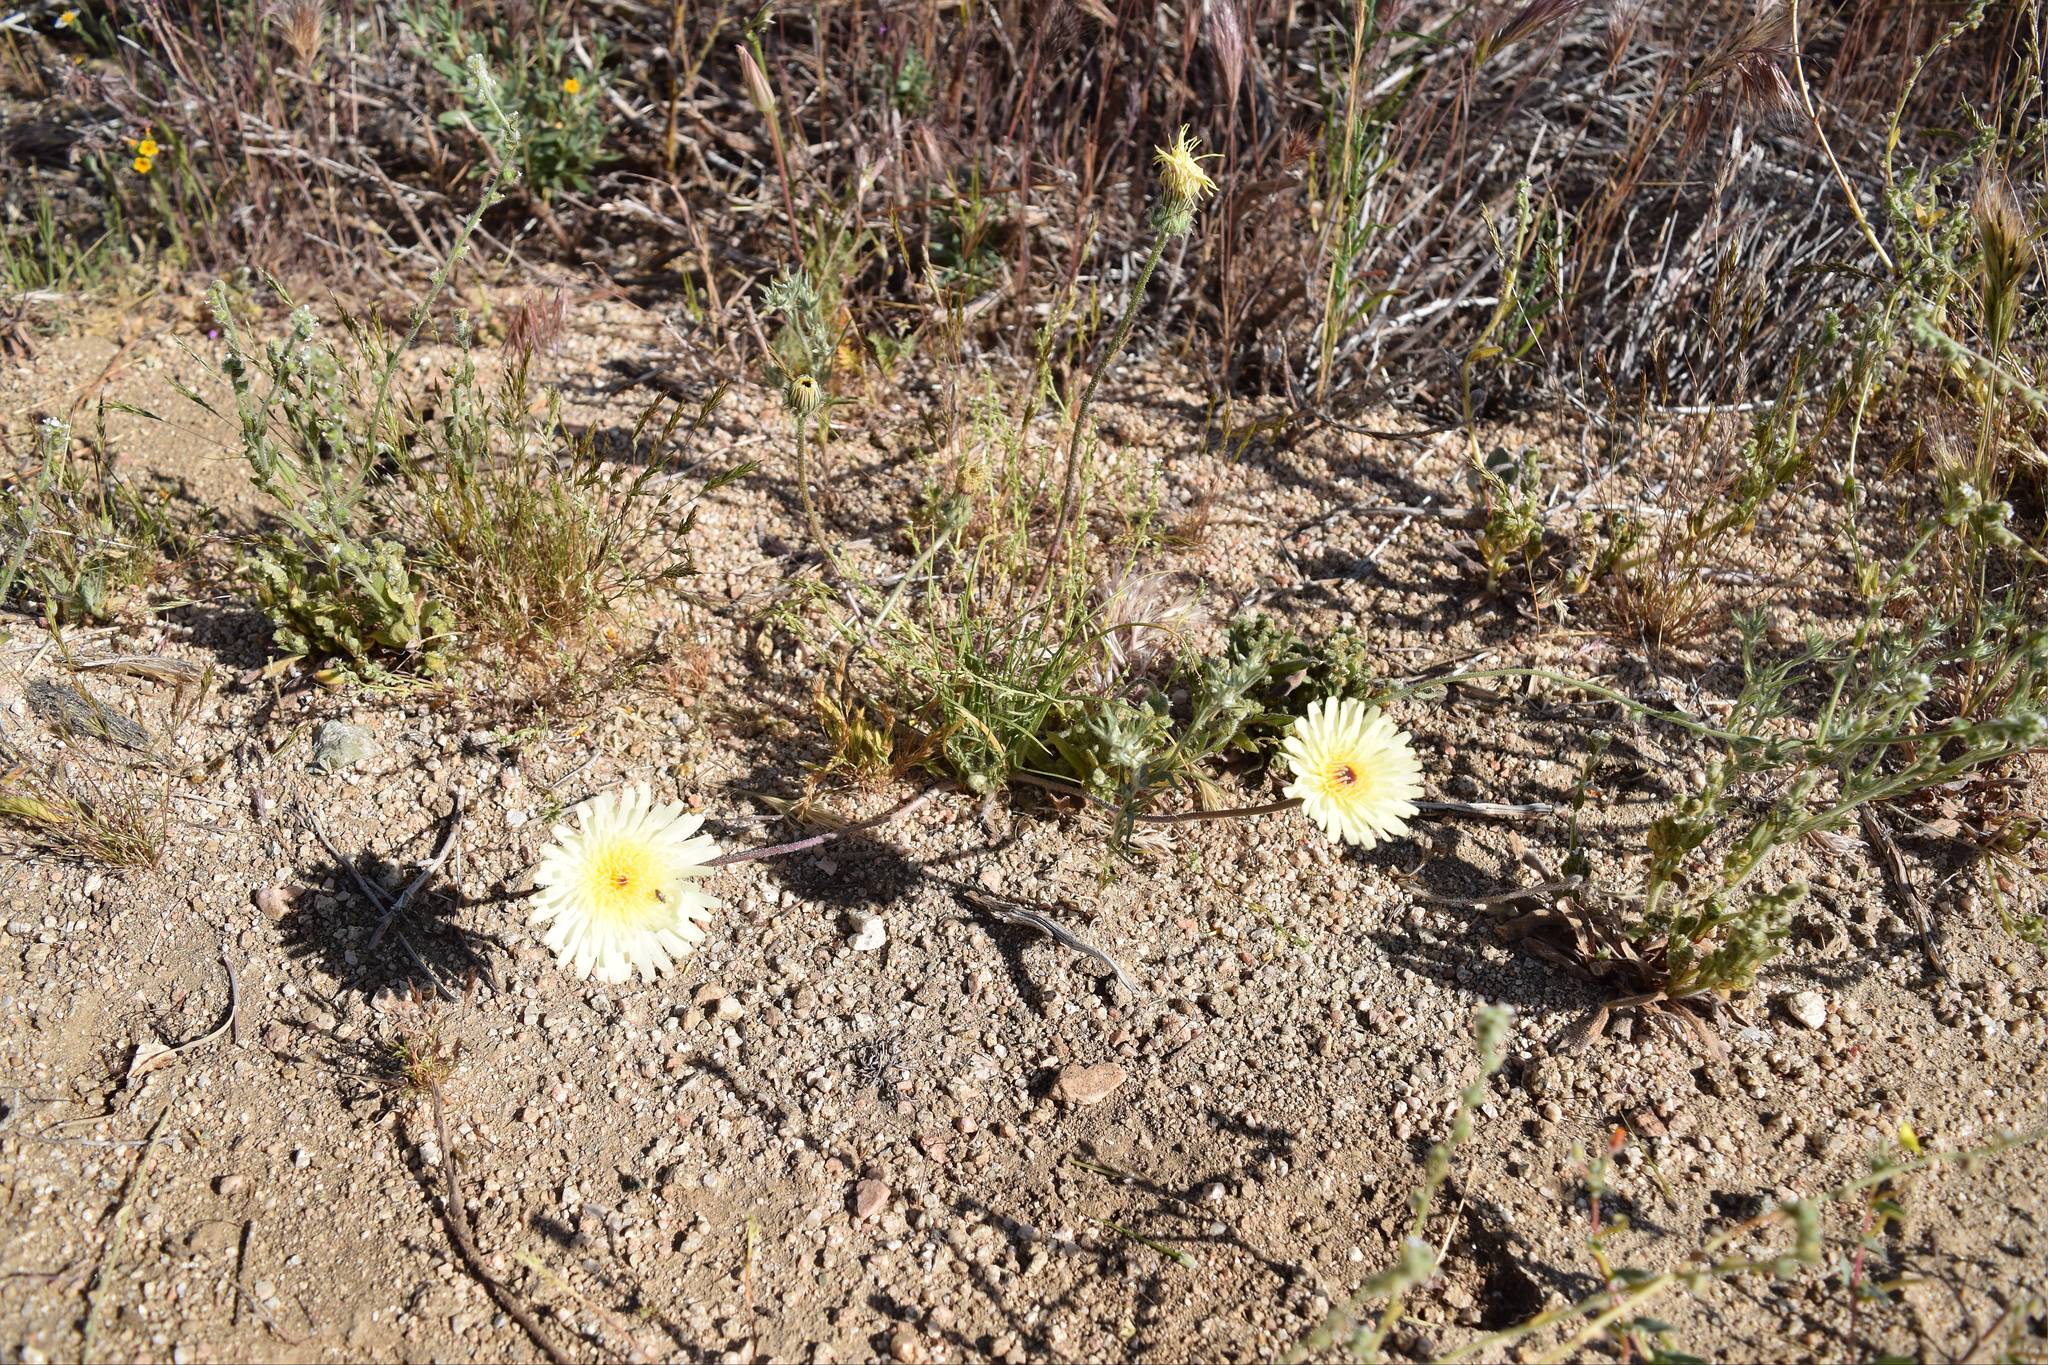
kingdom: Plantae
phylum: Tracheophyta
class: Magnoliopsida
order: Asterales
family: Asteraceae
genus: Malacothrix
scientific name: Malacothrix glabrata
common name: Smooth desert-dandelion
